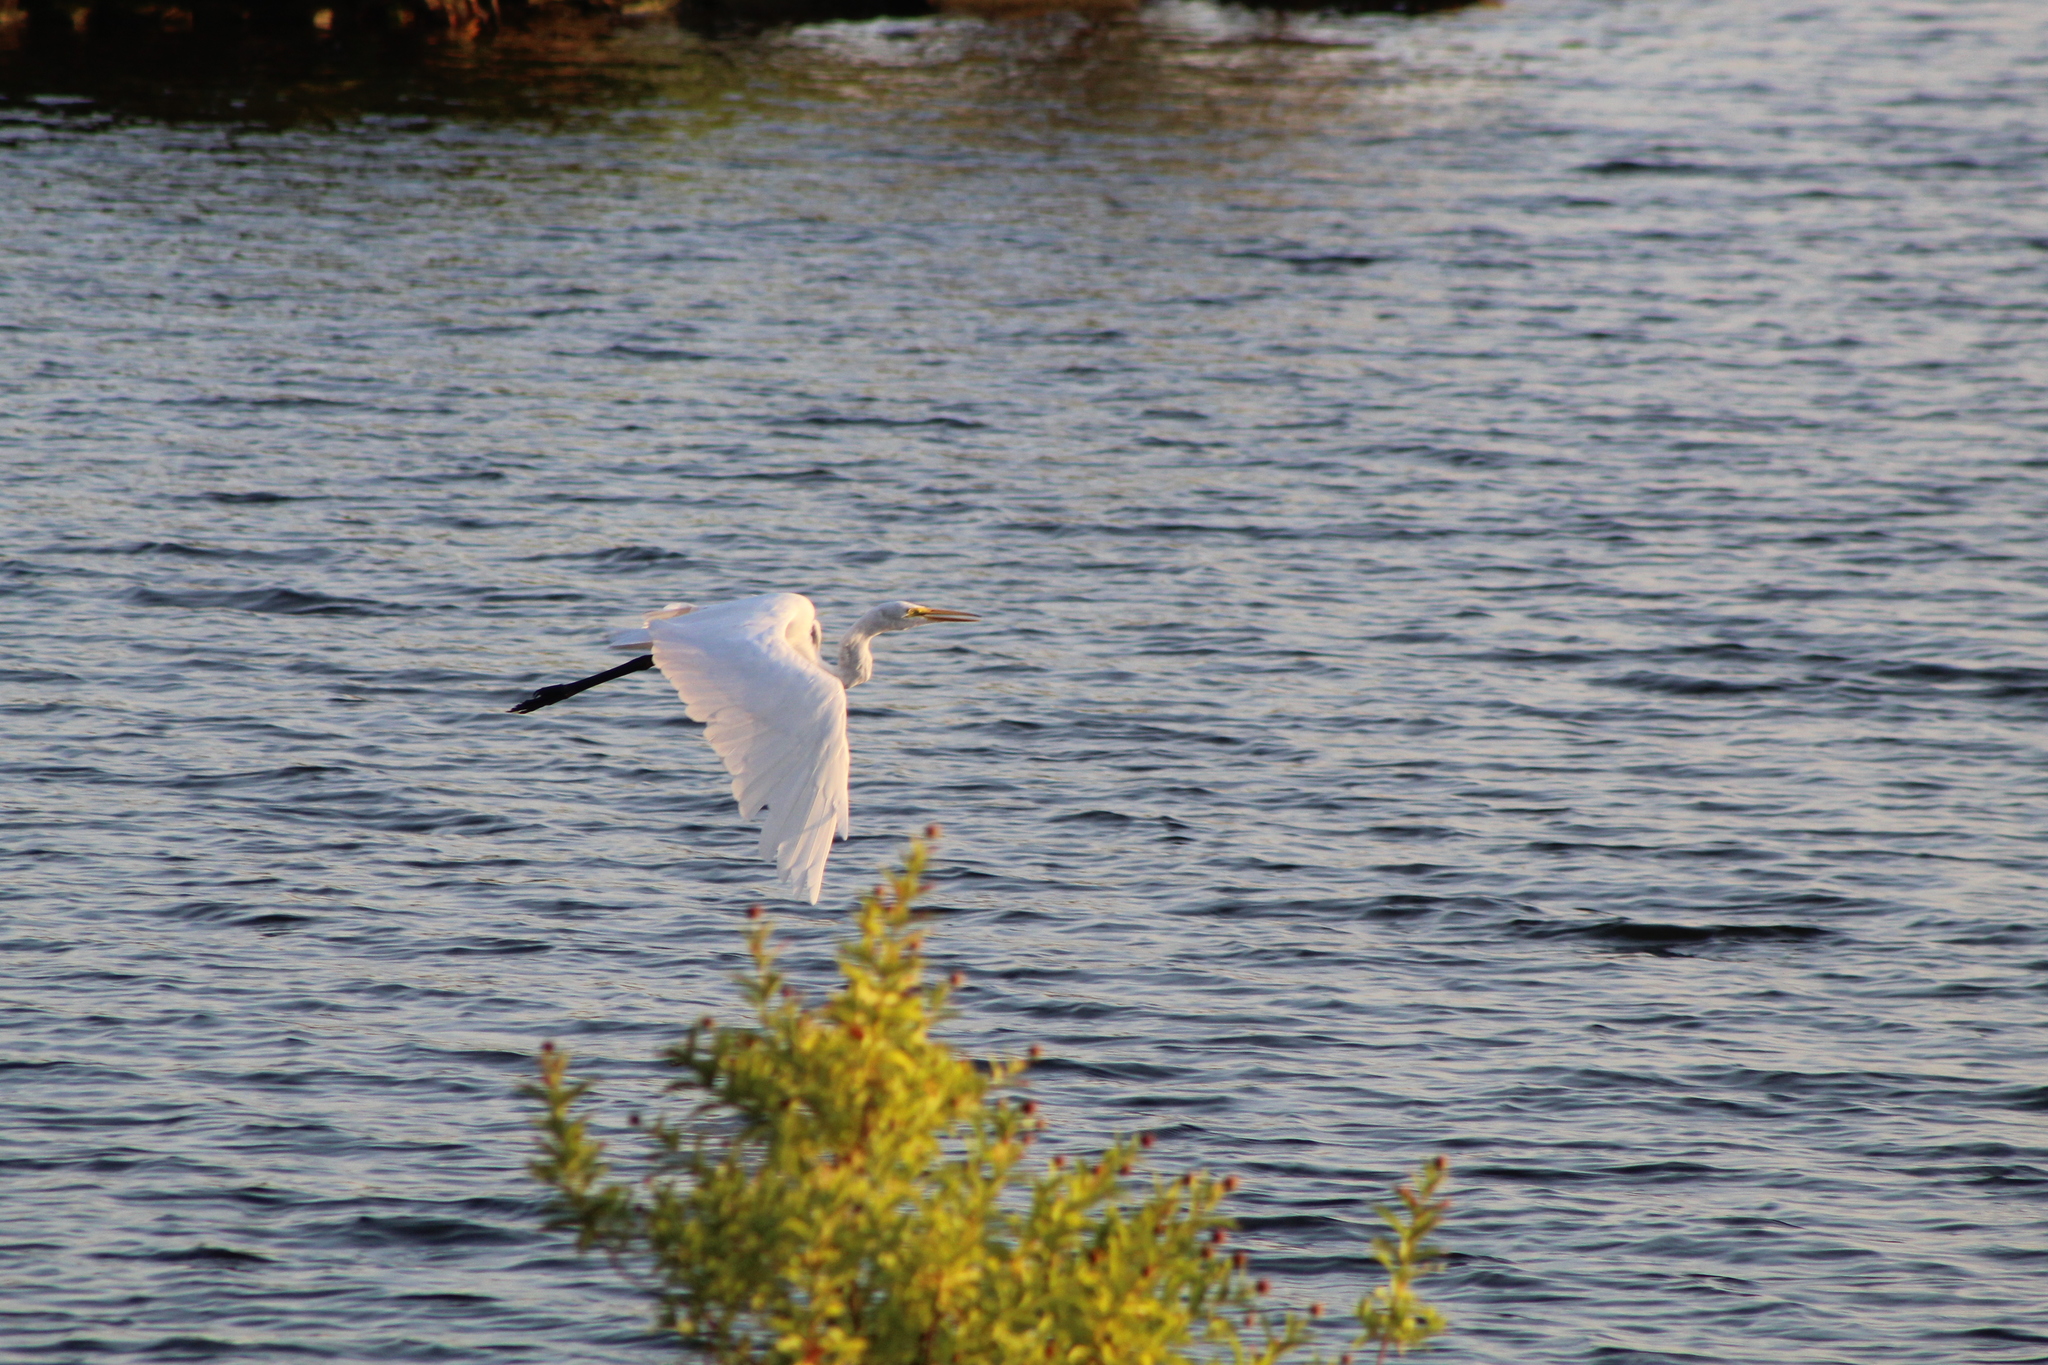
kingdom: Animalia
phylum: Chordata
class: Aves
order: Pelecaniformes
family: Ardeidae
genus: Ardea
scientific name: Ardea alba
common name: Great egret
